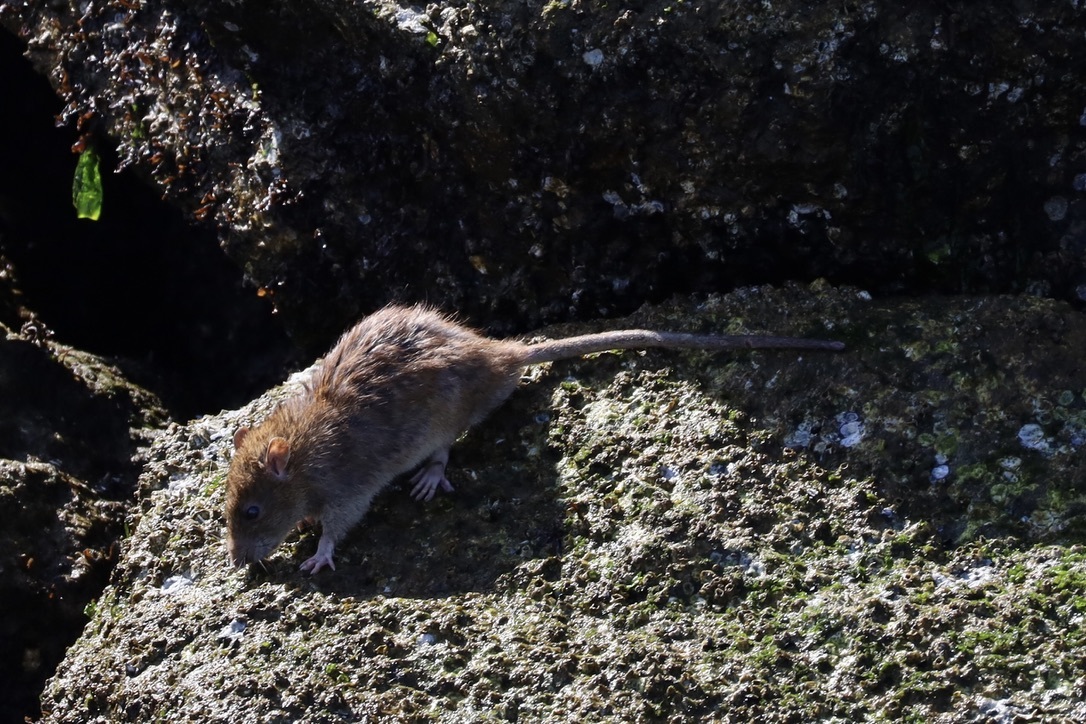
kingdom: Animalia
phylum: Chordata
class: Mammalia
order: Rodentia
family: Muridae
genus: Rattus
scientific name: Rattus norvegicus
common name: Brown rat
